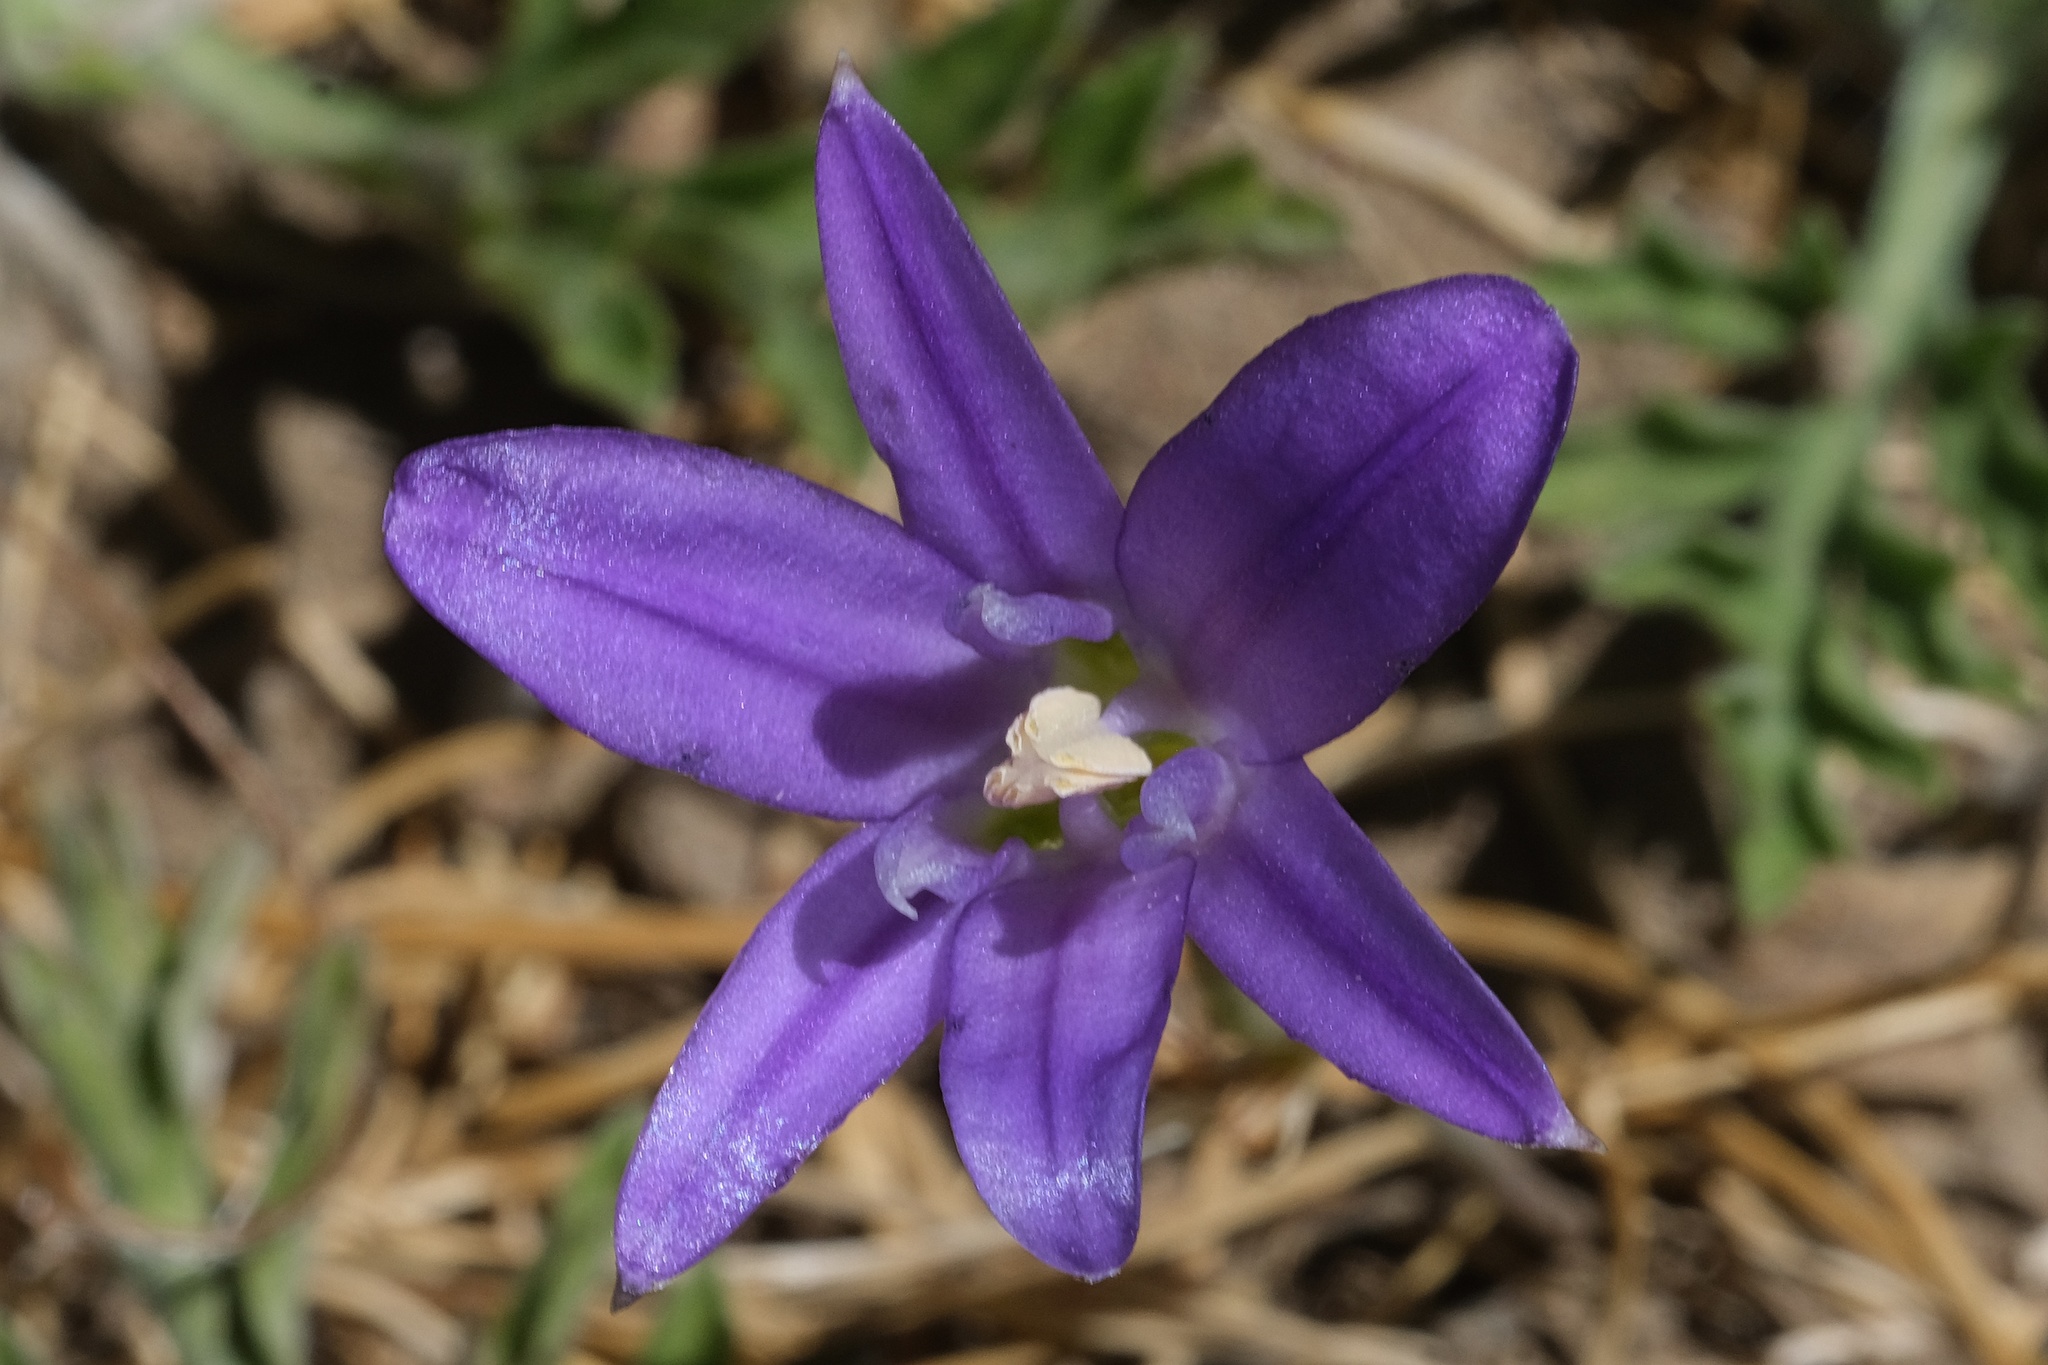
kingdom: Plantae
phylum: Tracheophyta
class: Liliopsida
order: Asparagales
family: Asparagaceae
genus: Brodiaea
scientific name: Brodiaea terrestris
